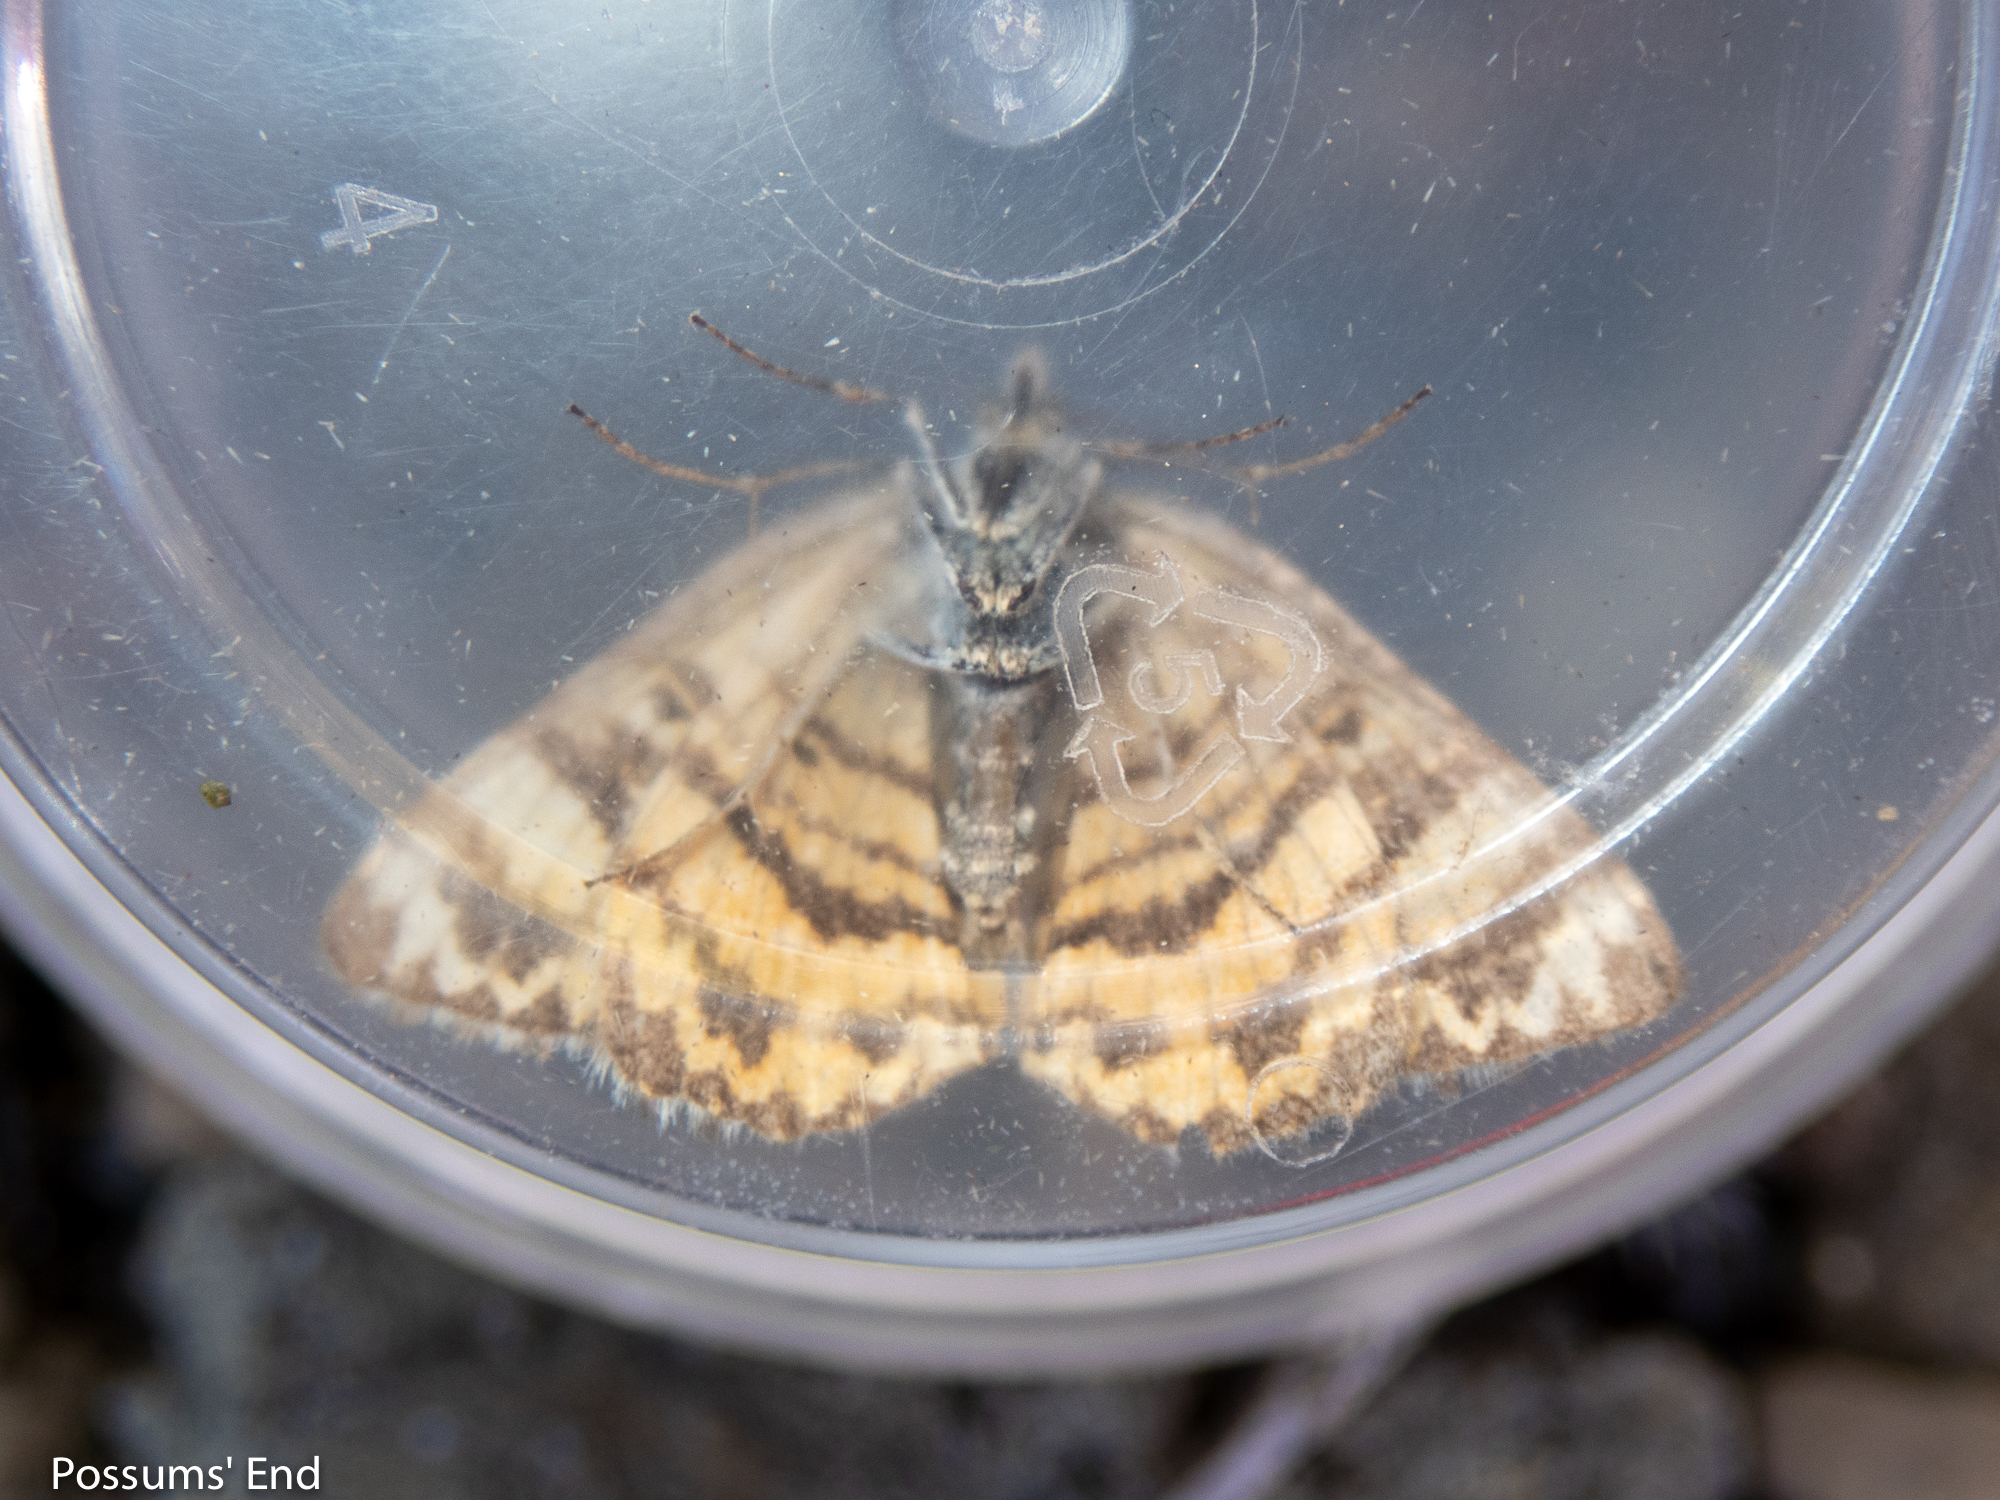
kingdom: Animalia
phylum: Arthropoda
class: Insecta
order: Lepidoptera
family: Geometridae
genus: Dasyuris
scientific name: Dasyuris anceps
